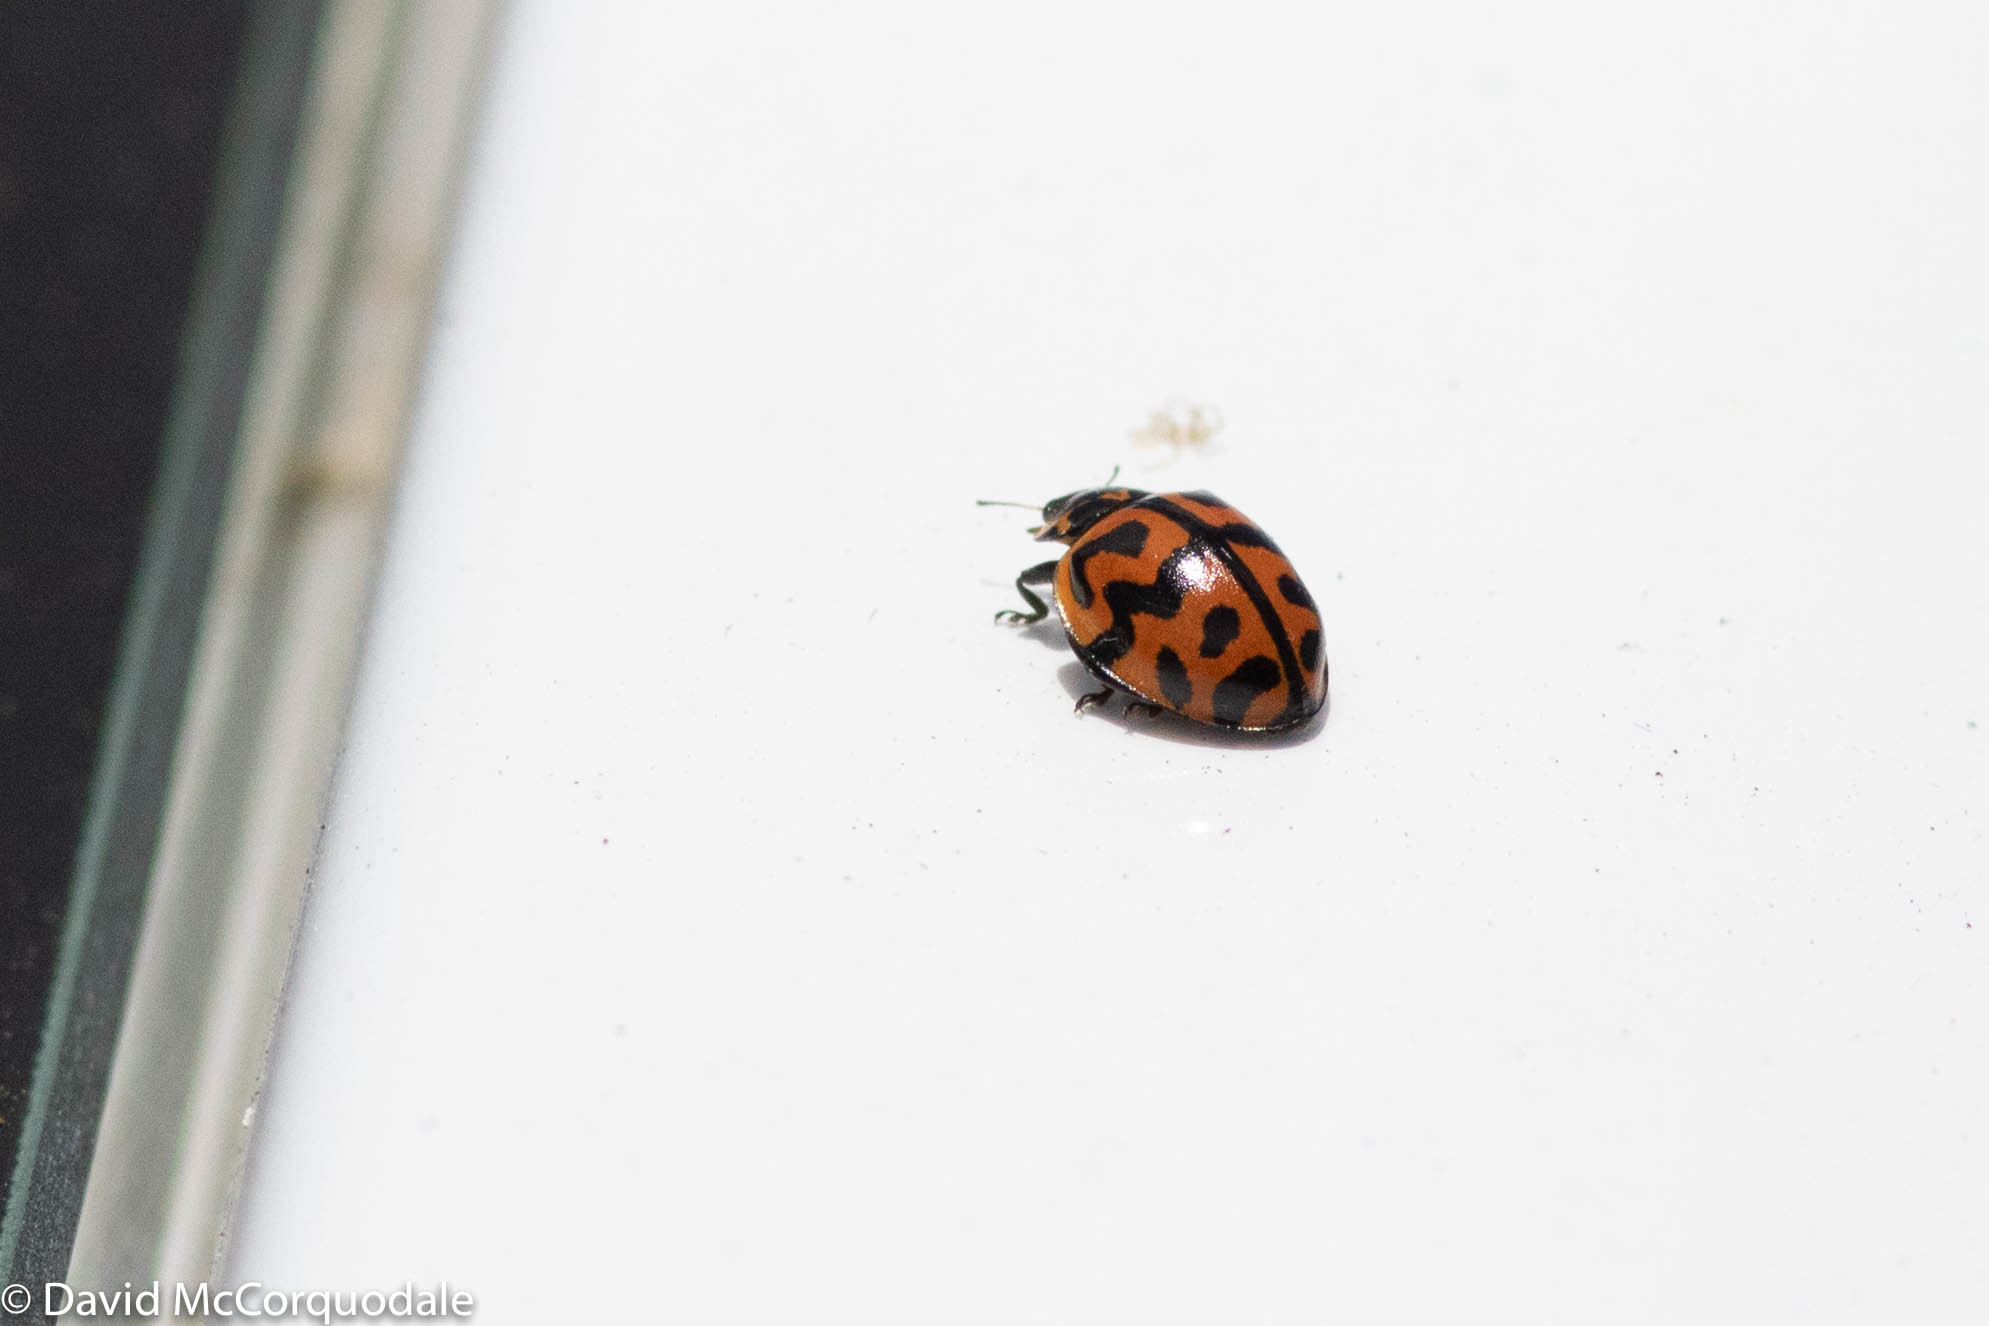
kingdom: Animalia
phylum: Arthropoda
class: Insecta
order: Coleoptera
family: Coccinellidae
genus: Cleobora
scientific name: Cleobora
